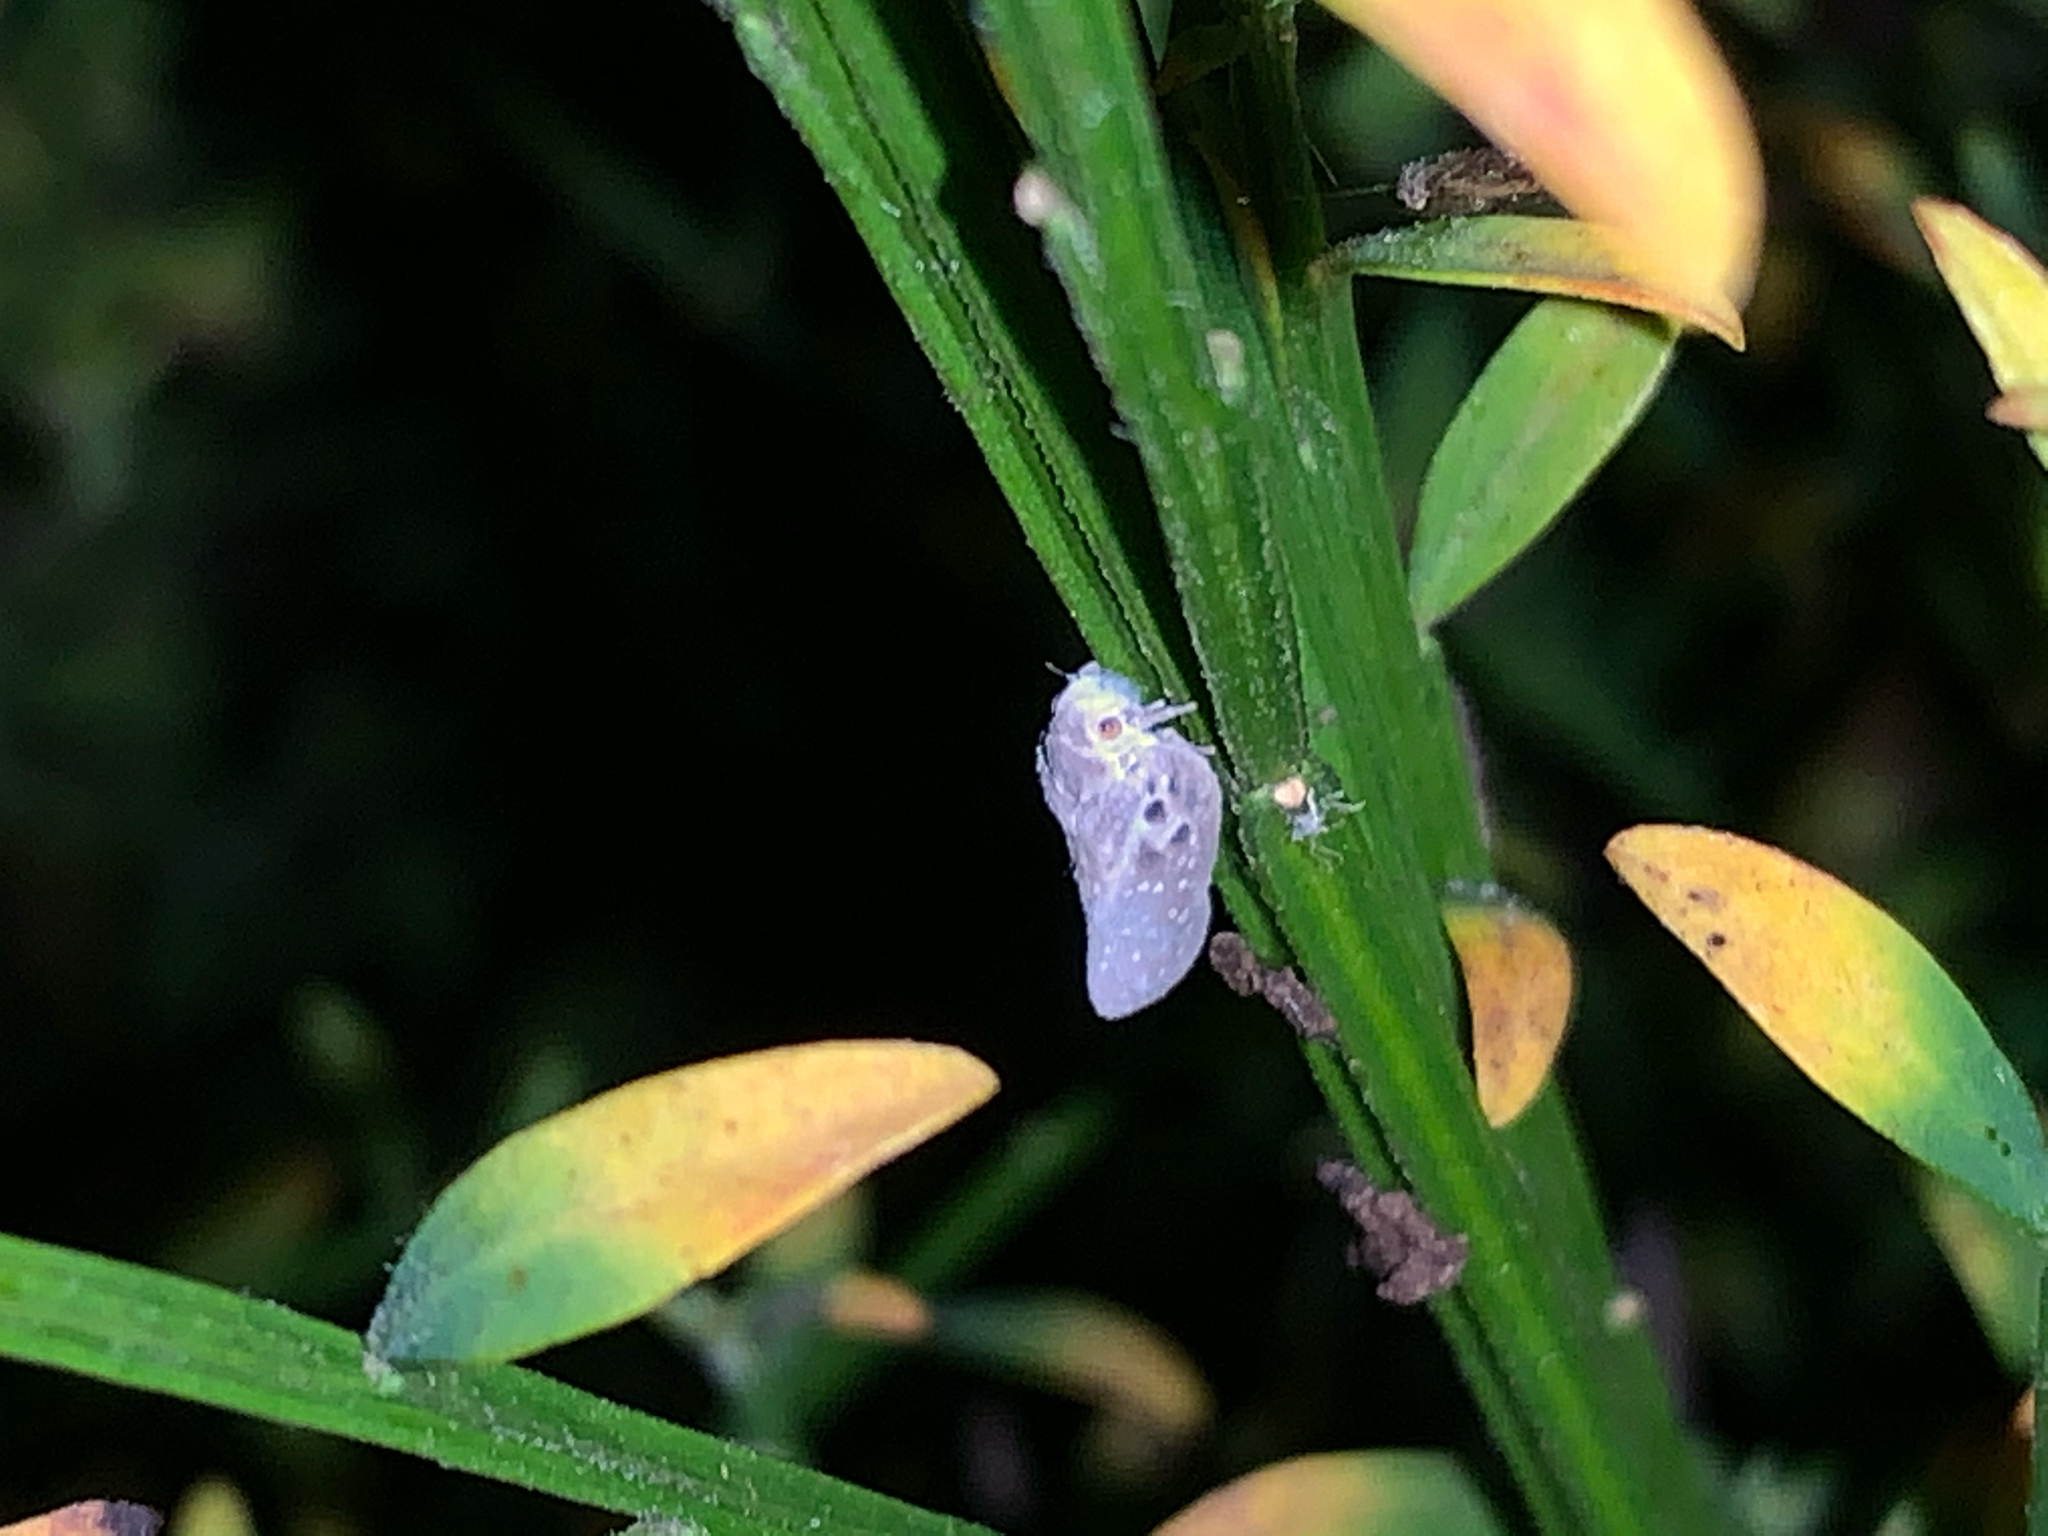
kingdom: Animalia
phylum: Arthropoda
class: Insecta
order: Hemiptera
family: Flatidae
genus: Metcalfa
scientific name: Metcalfa pruinosa
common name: Citrus flatid planthopper
